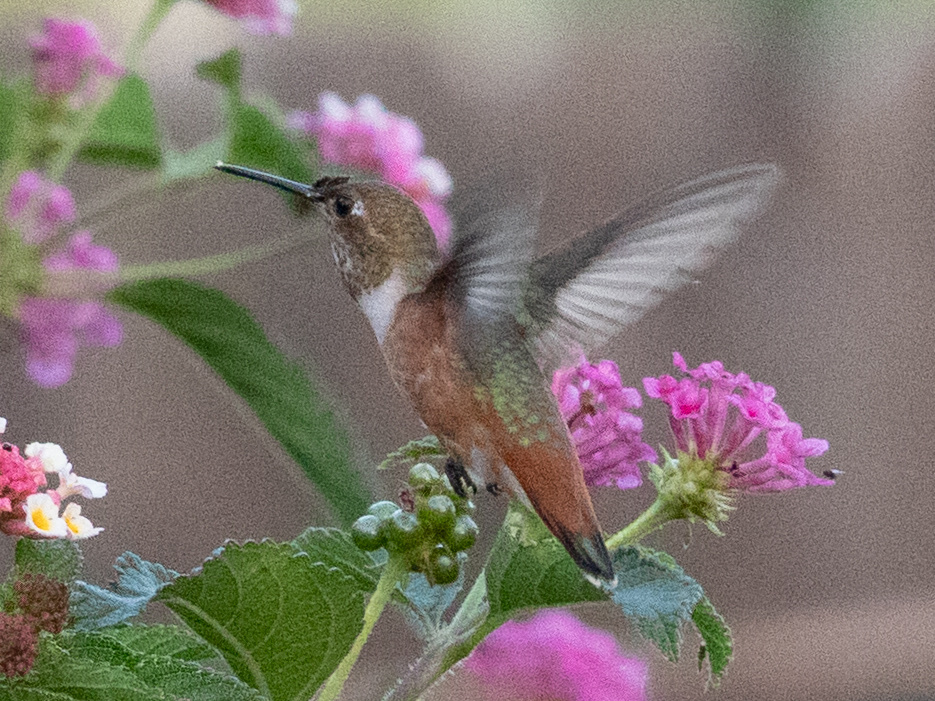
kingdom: Animalia
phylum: Chordata
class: Aves
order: Apodiformes
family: Trochilidae
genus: Selasphorus
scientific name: Selasphorus sasin
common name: Allen's hummingbird
